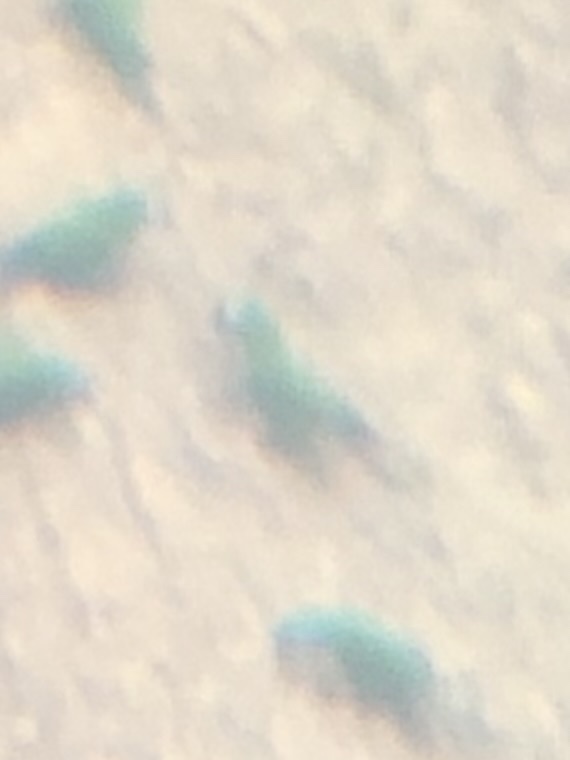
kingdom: Animalia
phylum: Chordata
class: Aves
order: Psittaciformes
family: Psittacidae
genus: Ara
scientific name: Ara severus
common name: Chestnut-fronted macaw
